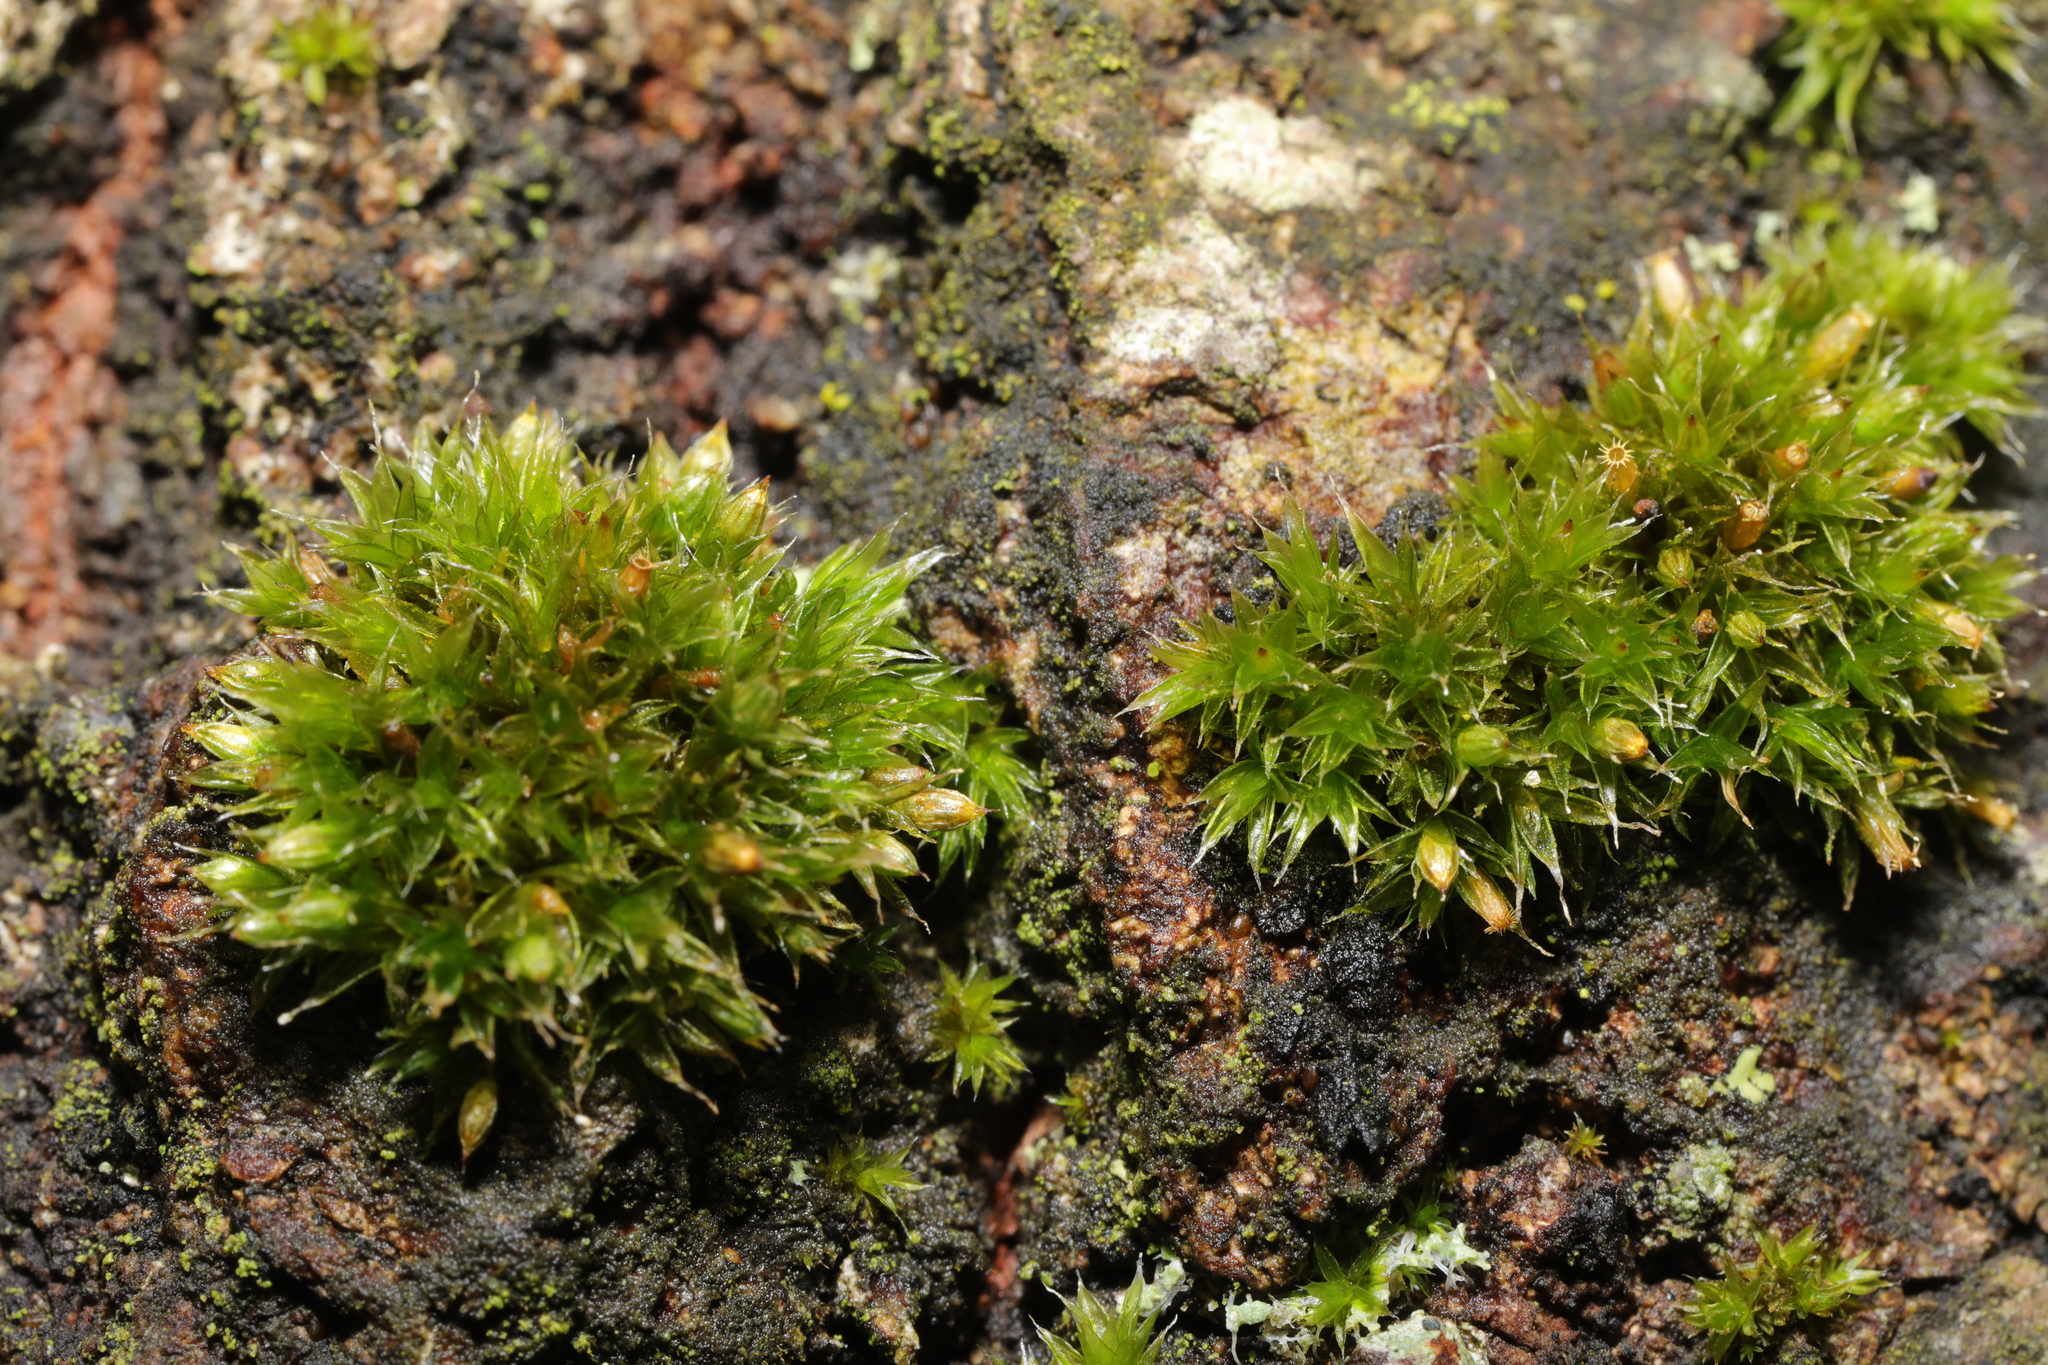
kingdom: Plantae
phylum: Bryophyta
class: Bryopsida
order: Orthotrichales
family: Orthotrichaceae
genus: Orthotrichum
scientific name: Orthotrichum diaphanum
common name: White-tipped bristle-moss
